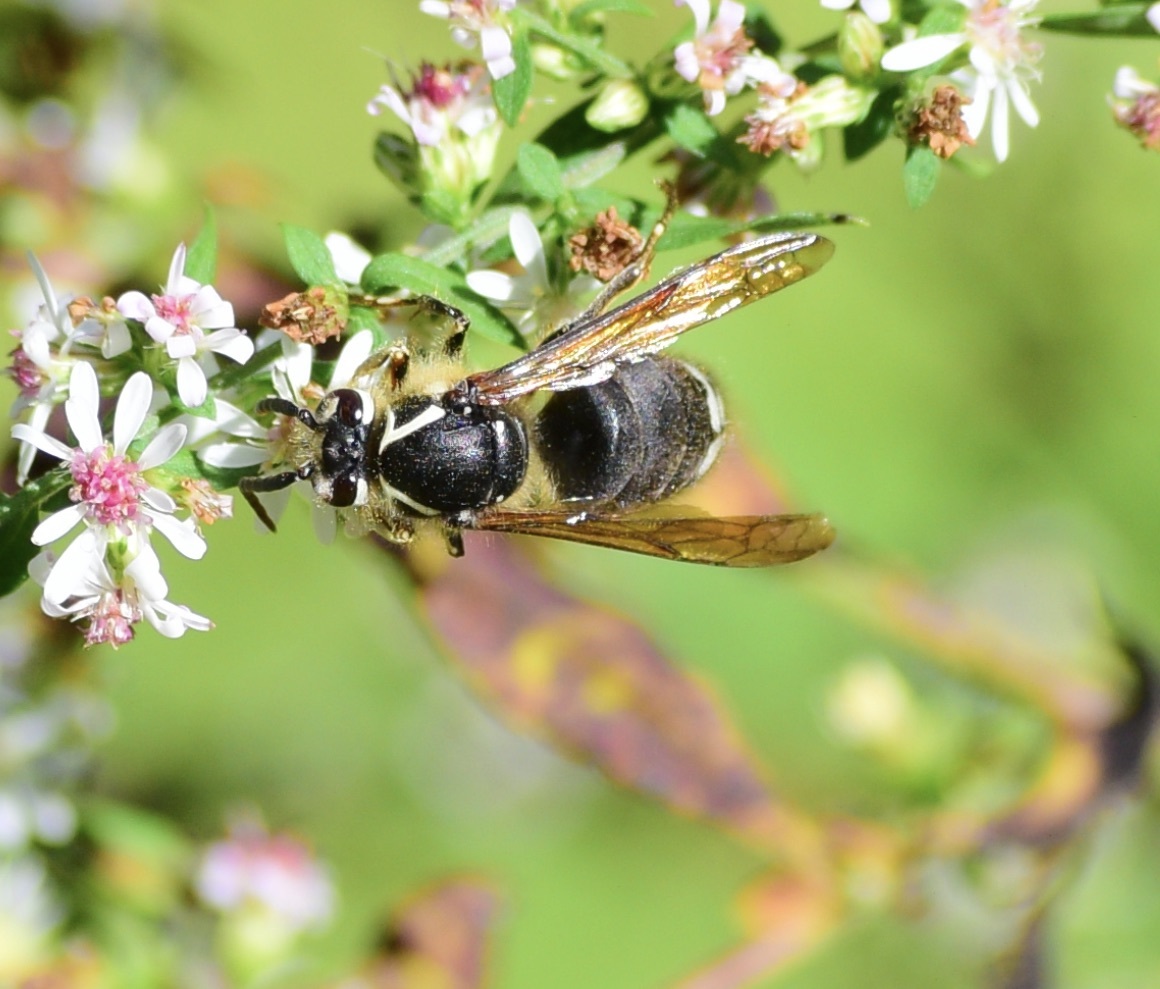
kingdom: Animalia
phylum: Arthropoda
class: Insecta
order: Hymenoptera
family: Vespidae
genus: Dolichovespula
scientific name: Dolichovespula maculata
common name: Bald-faced hornet
